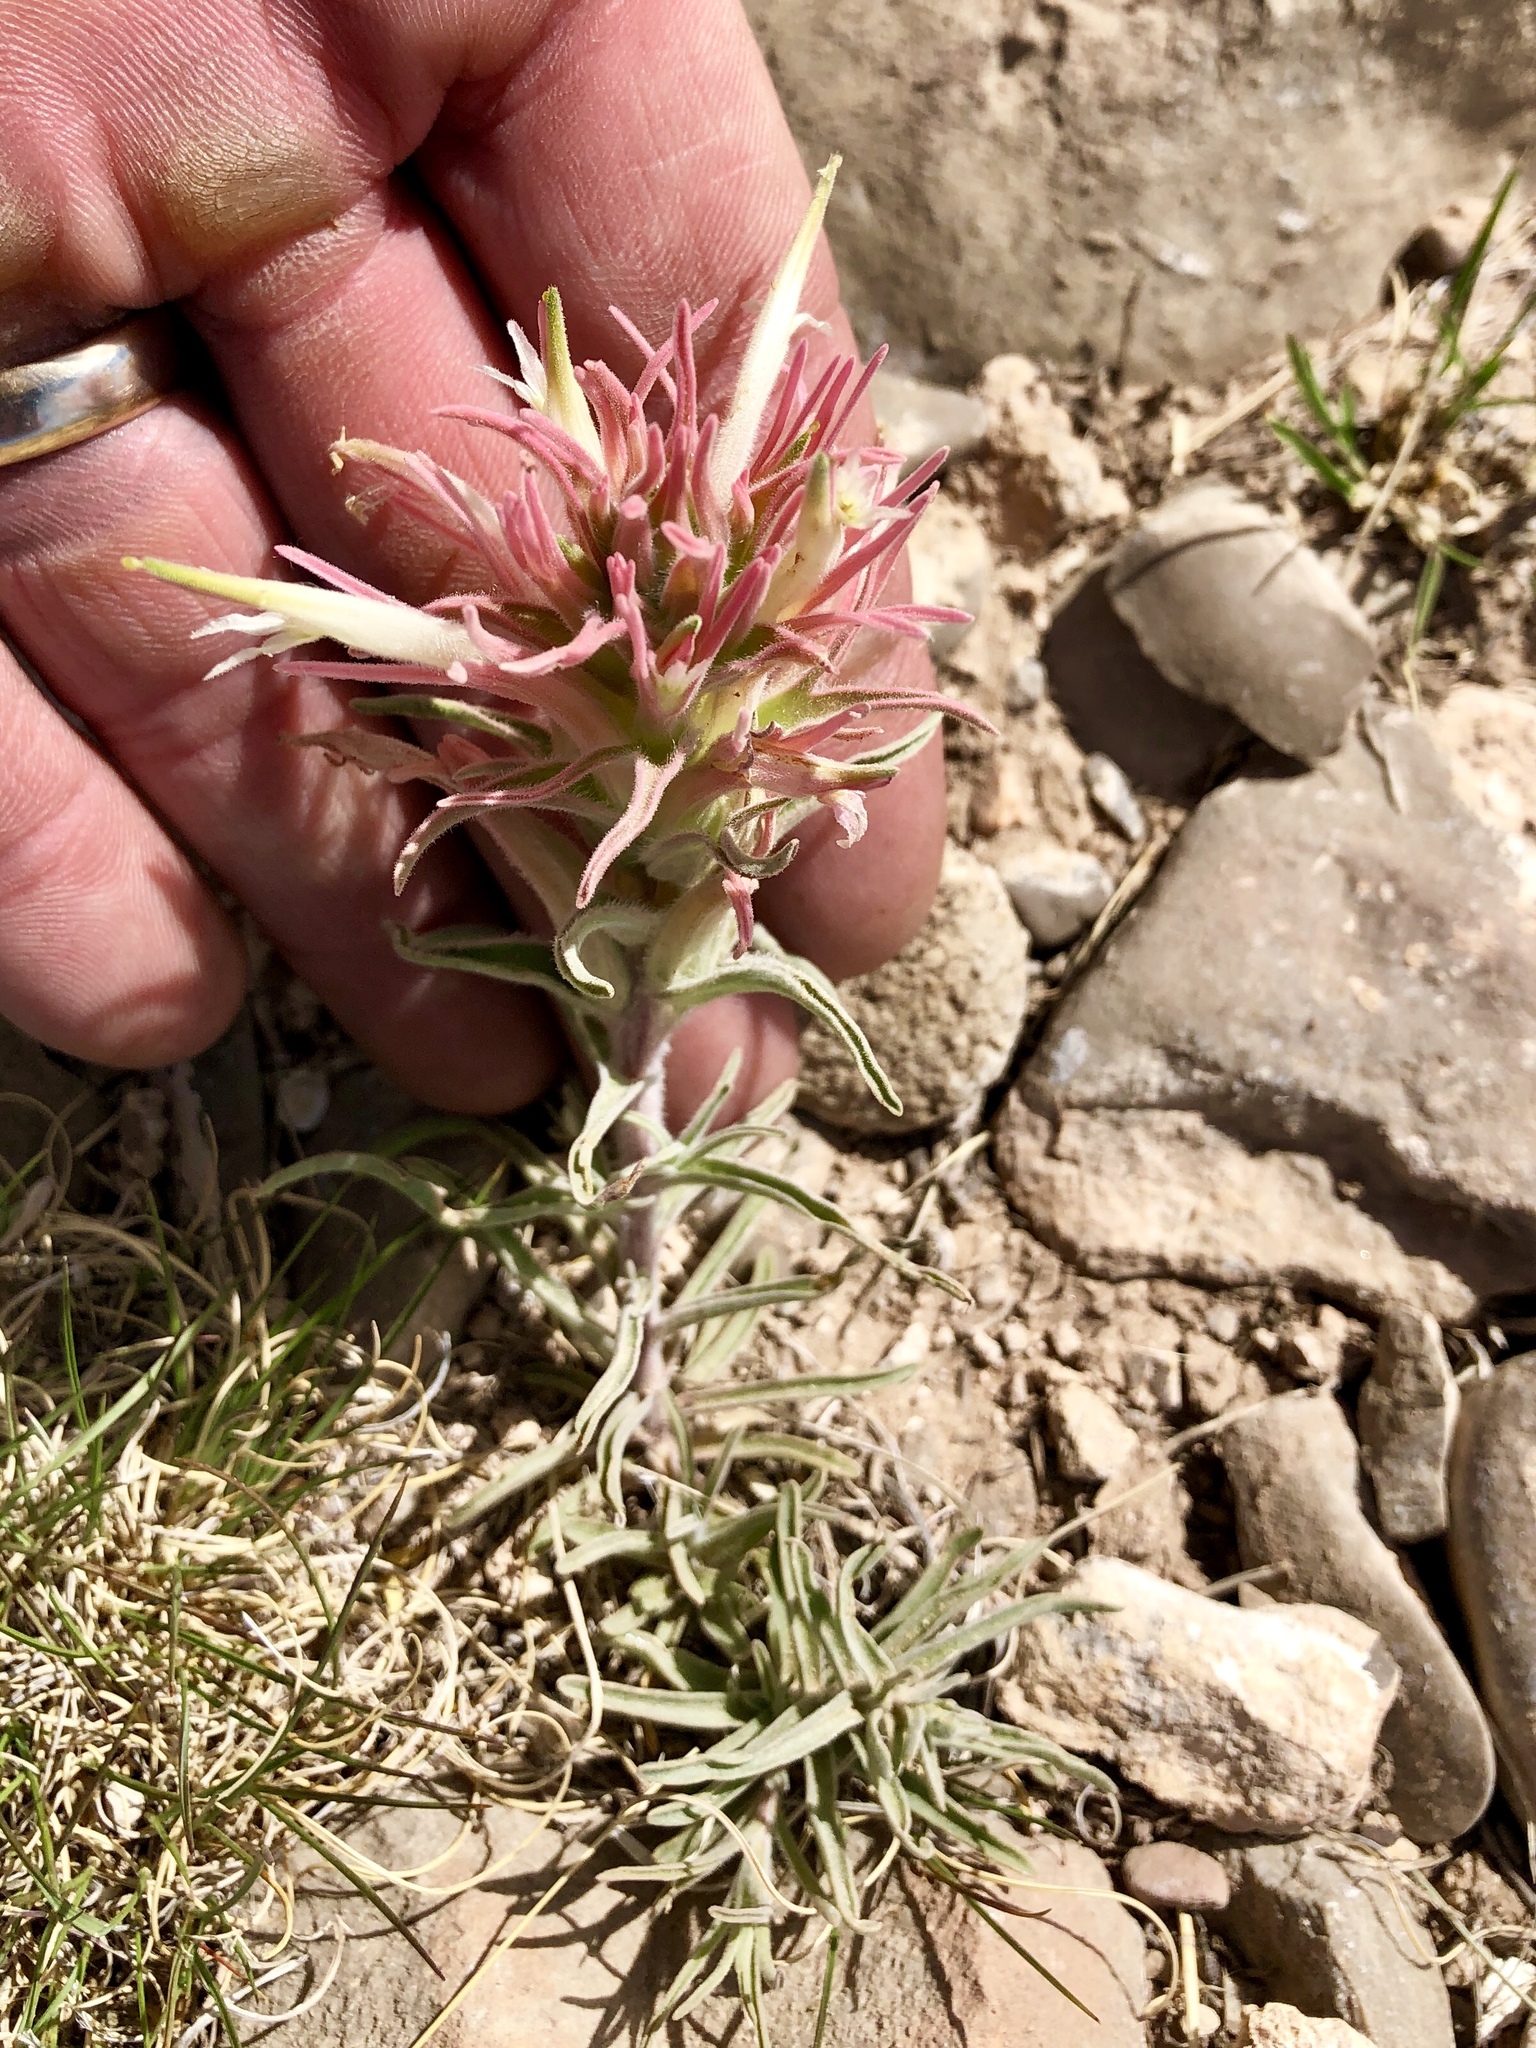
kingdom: Plantae
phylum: Tracheophyta
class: Magnoliopsida
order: Lamiales
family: Orobanchaceae
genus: Castilleja
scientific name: Castilleja sessiliflora
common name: Downy paintbrush
